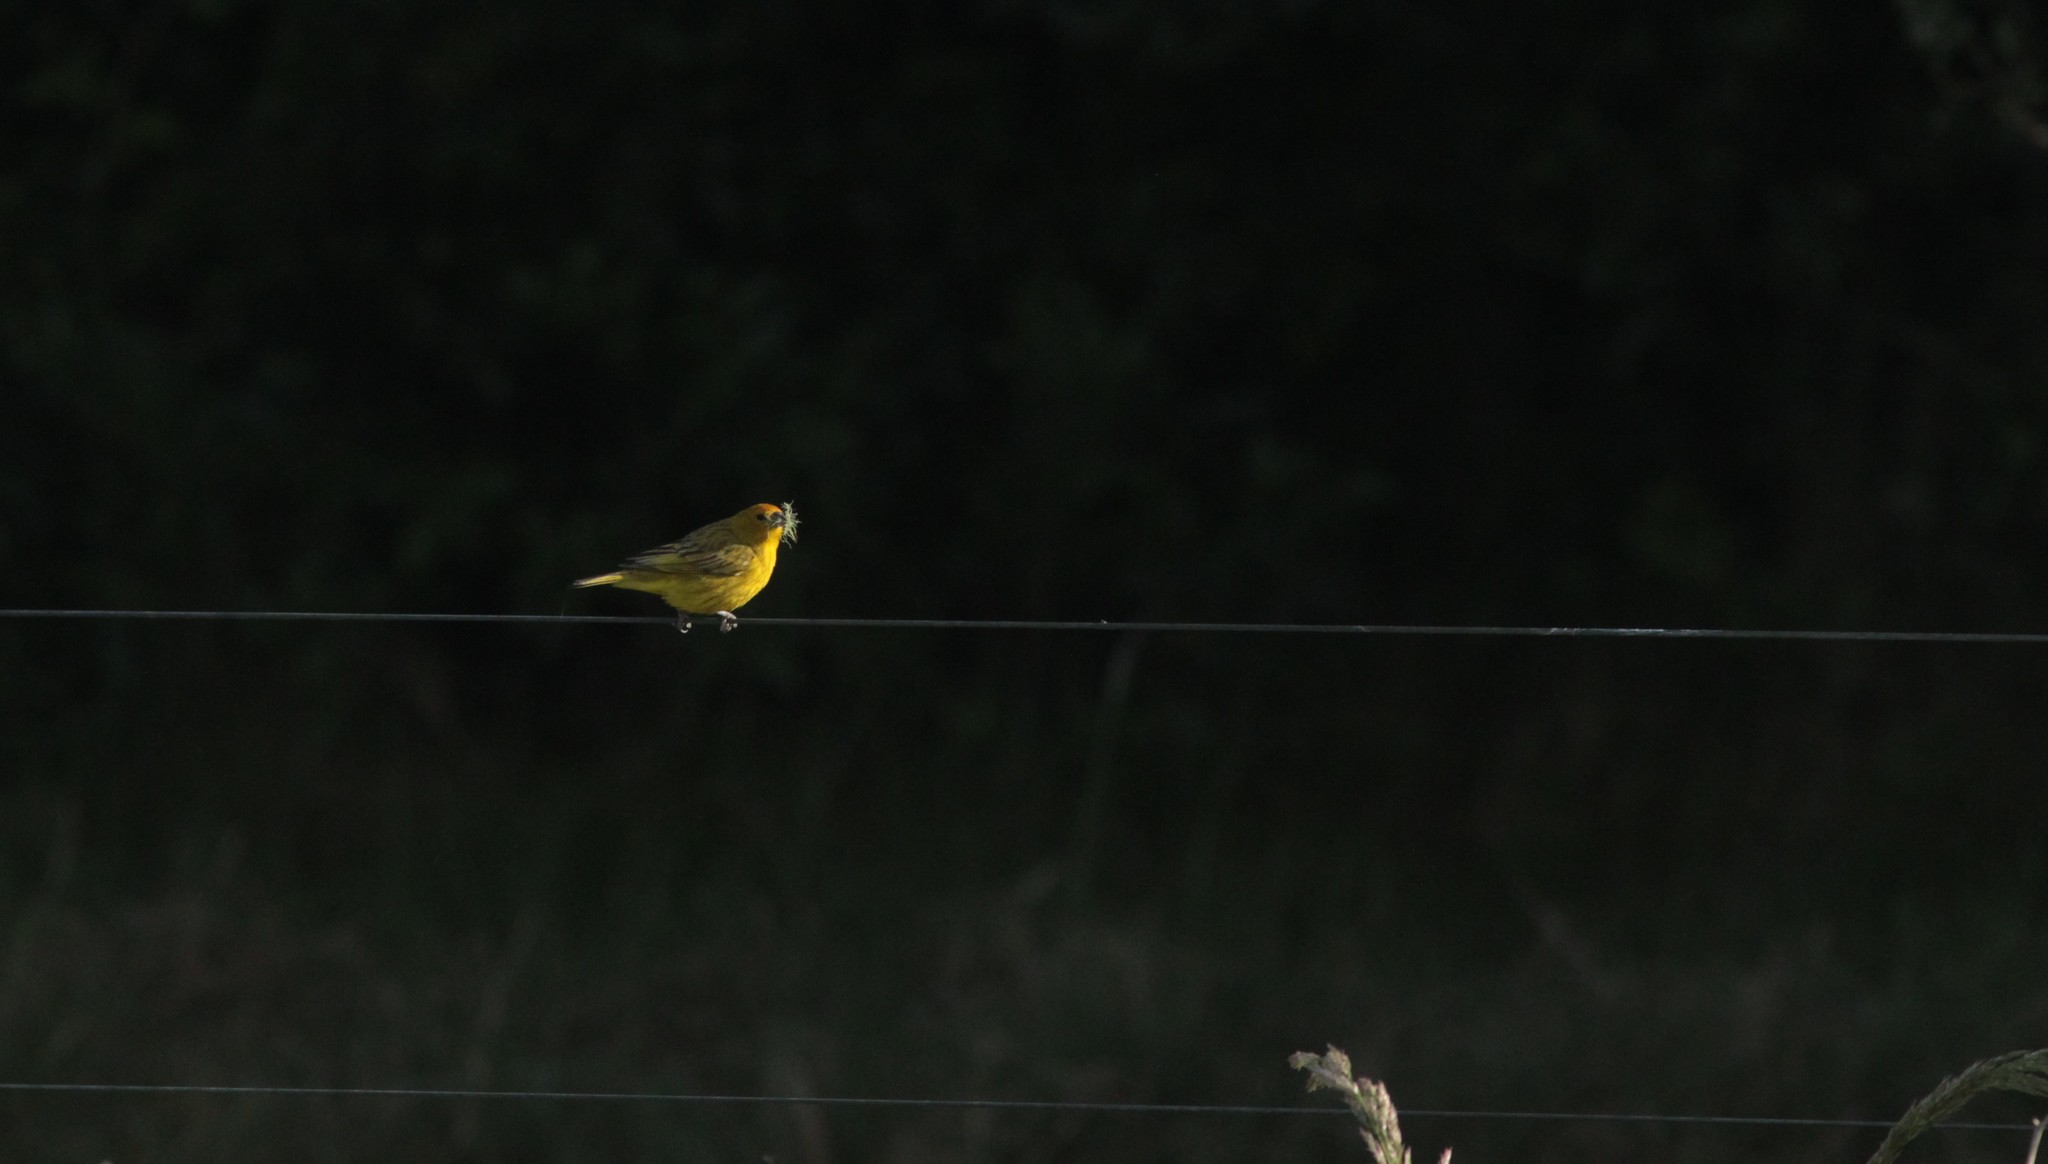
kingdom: Animalia
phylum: Chordata
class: Aves
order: Passeriformes
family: Thraupidae
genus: Sicalis
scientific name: Sicalis flaveola
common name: Saffron finch
